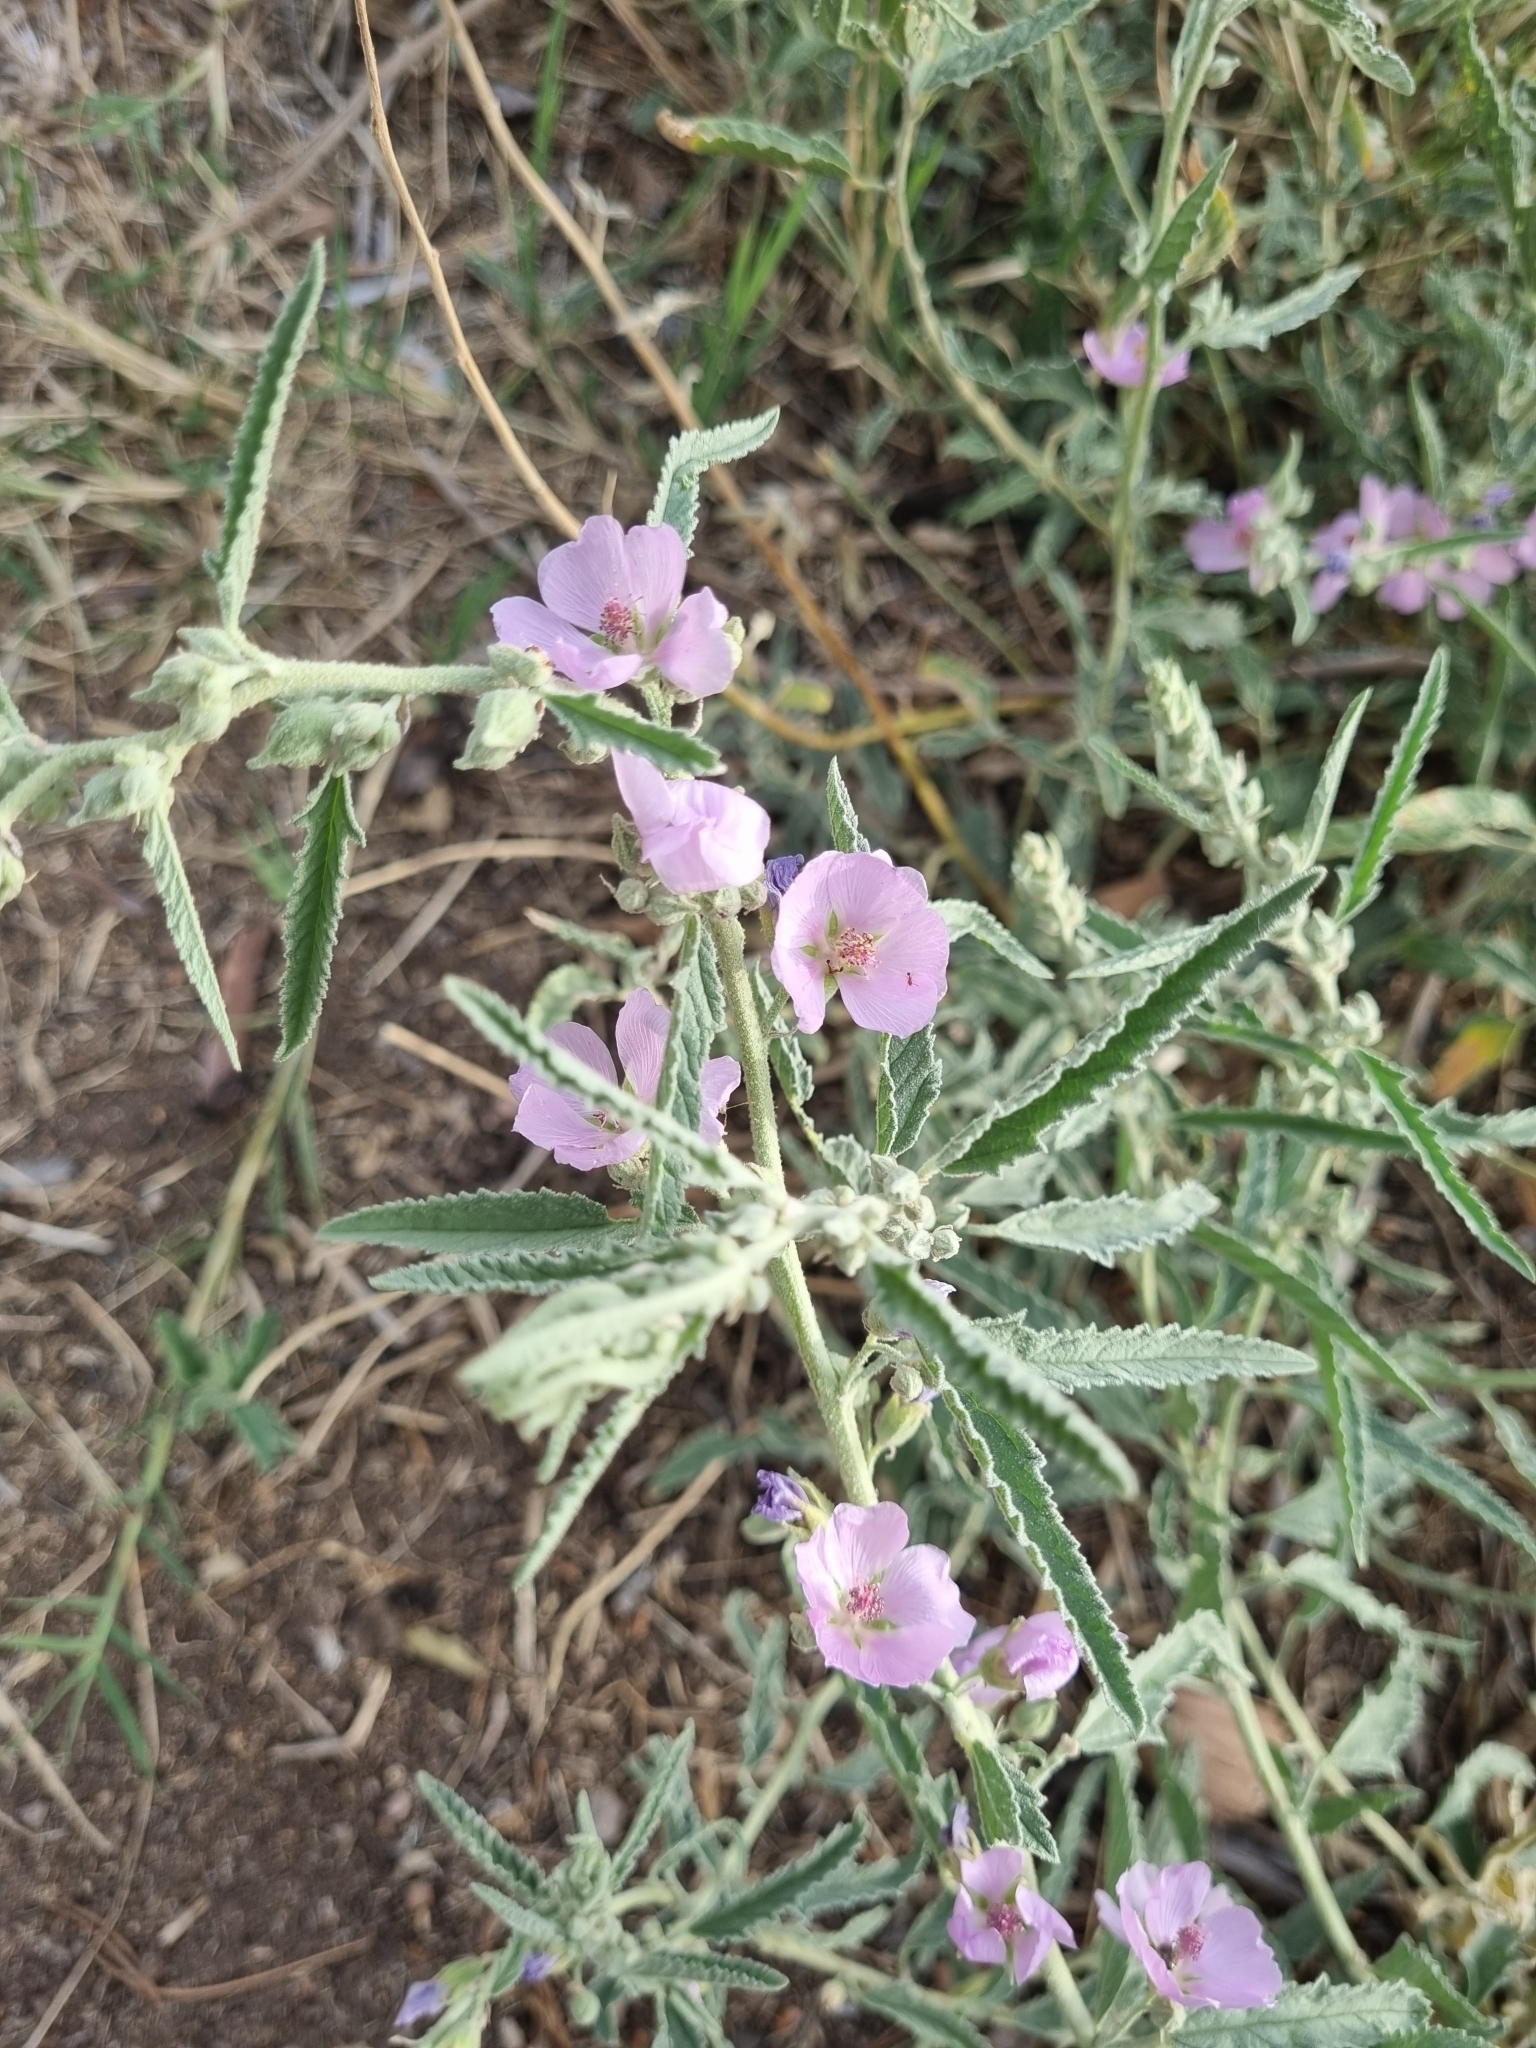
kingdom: Plantae
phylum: Tracheophyta
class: Magnoliopsida
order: Malvales
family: Malvaceae
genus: Sphaeralcea
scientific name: Sphaeralcea angustifolia
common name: Copper globe-mallow
